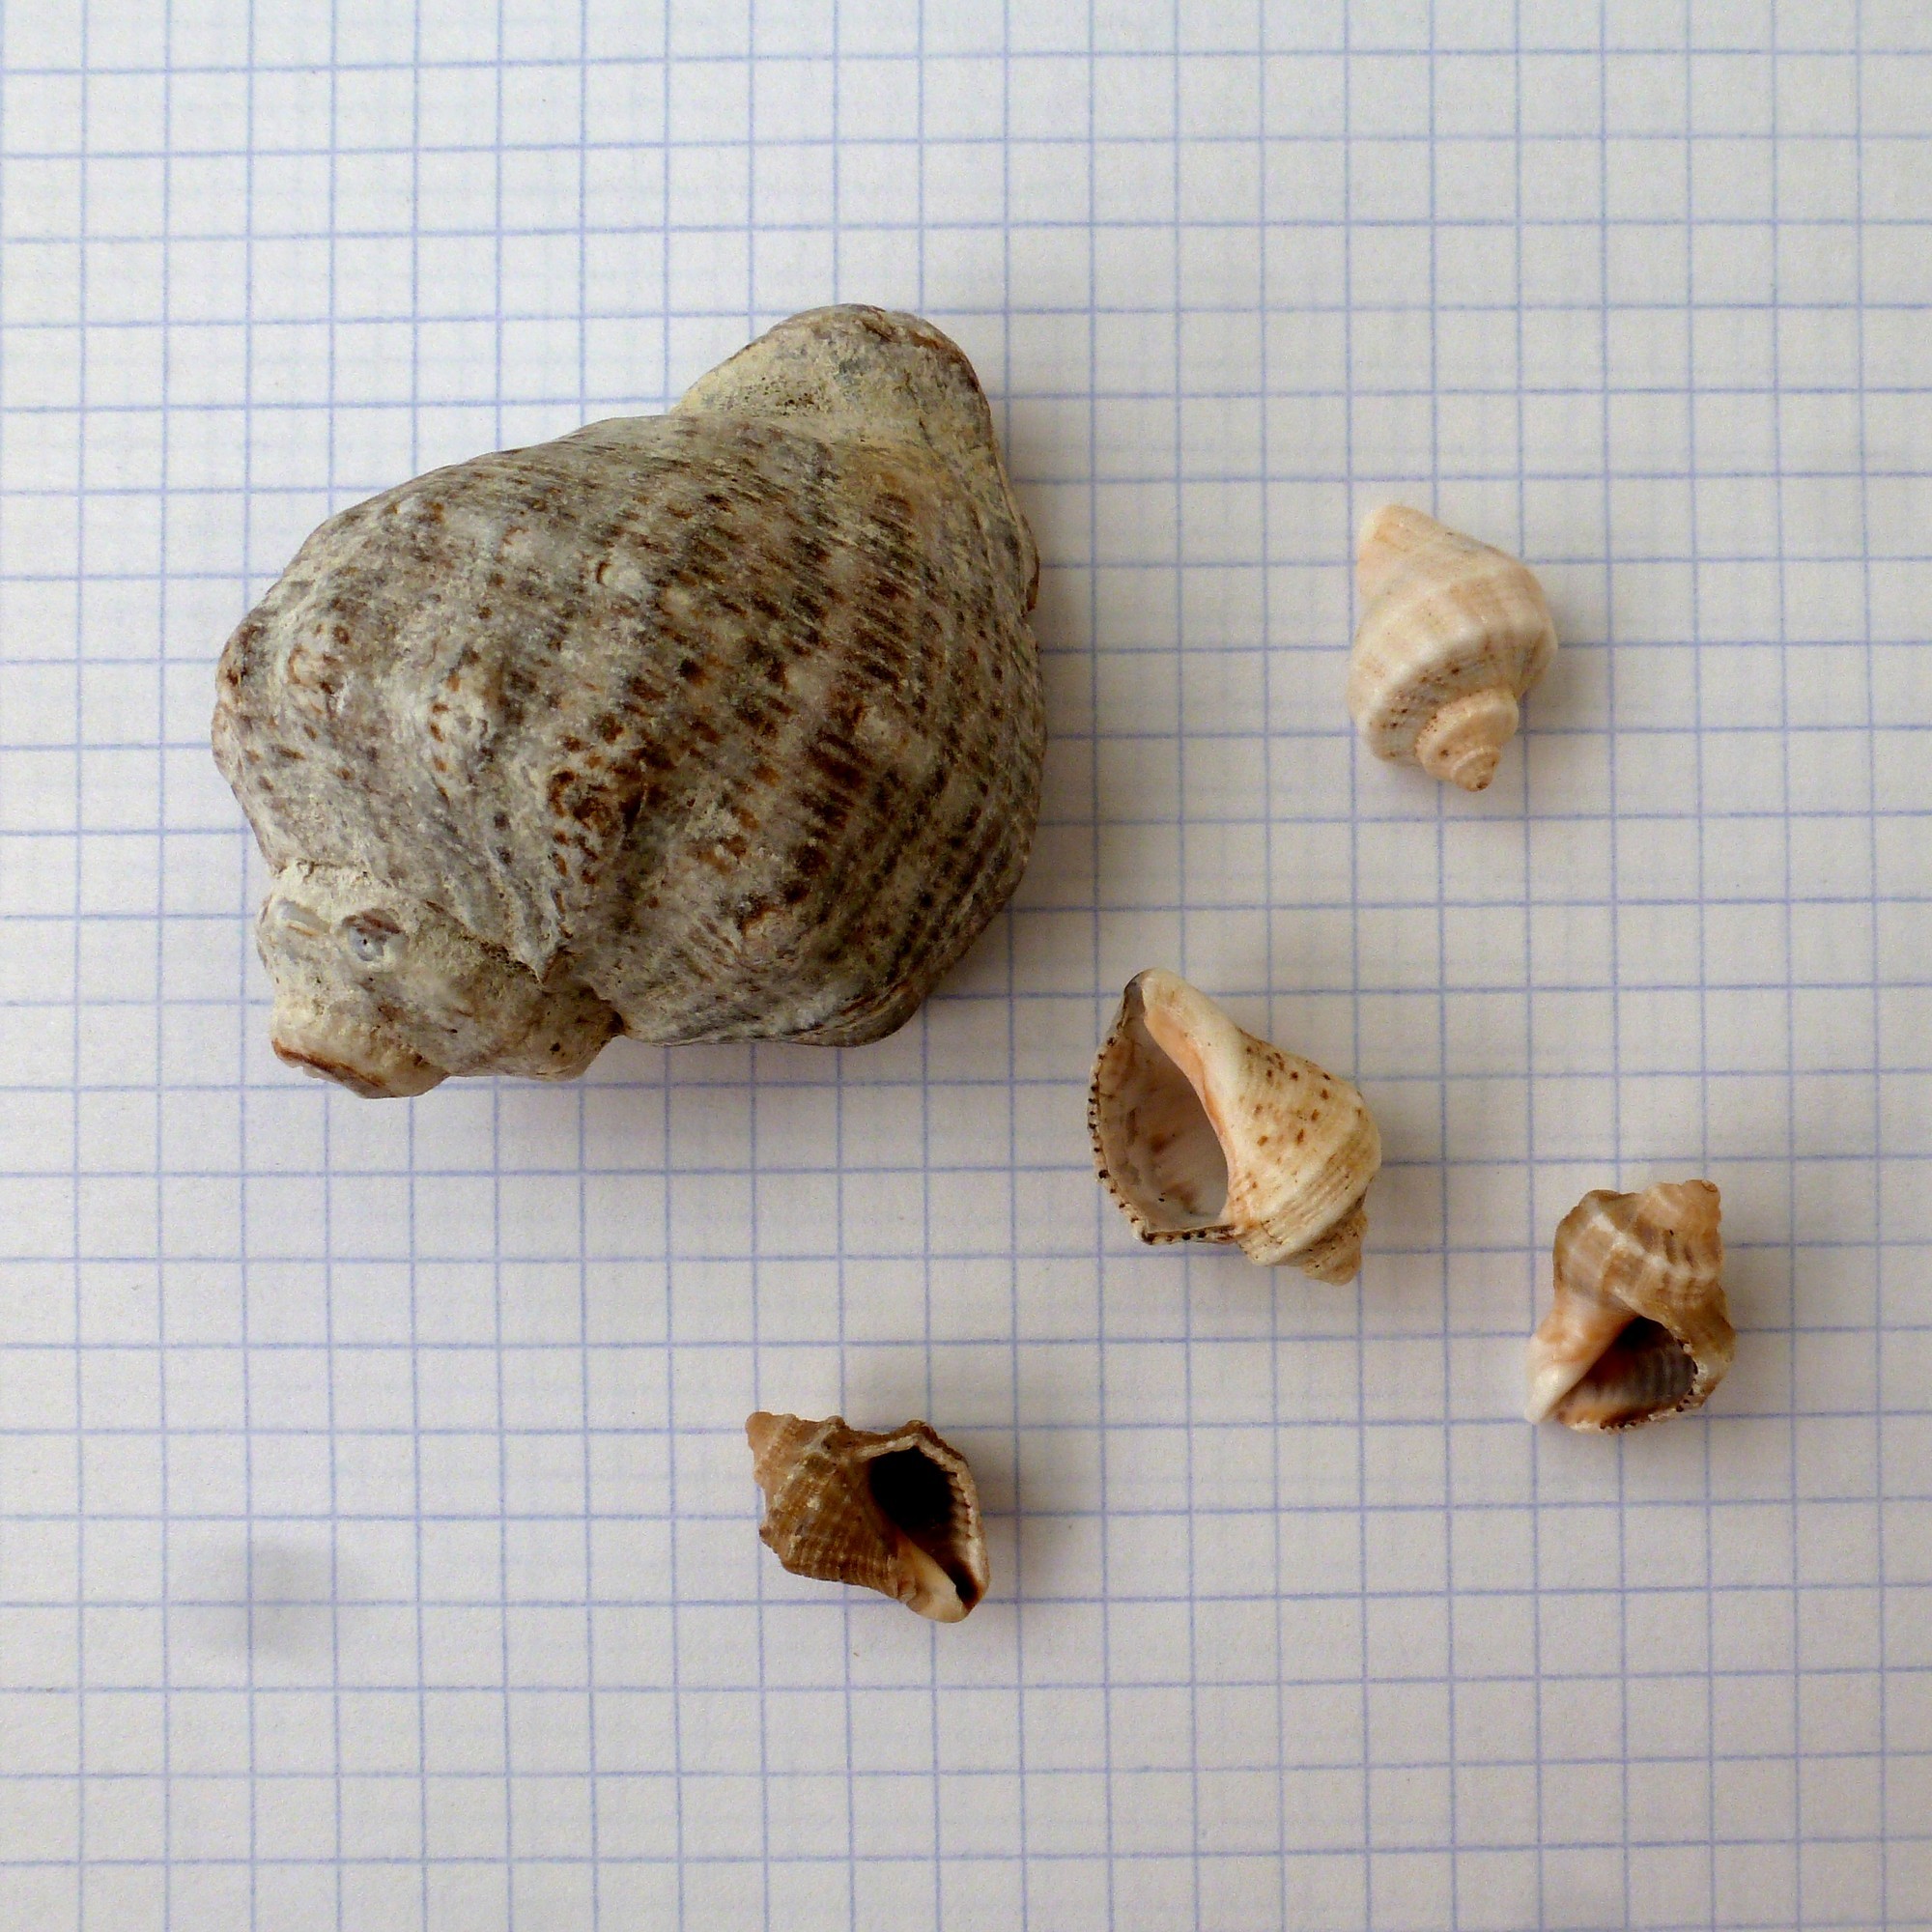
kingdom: Animalia
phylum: Mollusca
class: Gastropoda
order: Neogastropoda
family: Muricidae
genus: Rapana
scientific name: Rapana venosa
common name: Veined rapa whelk
